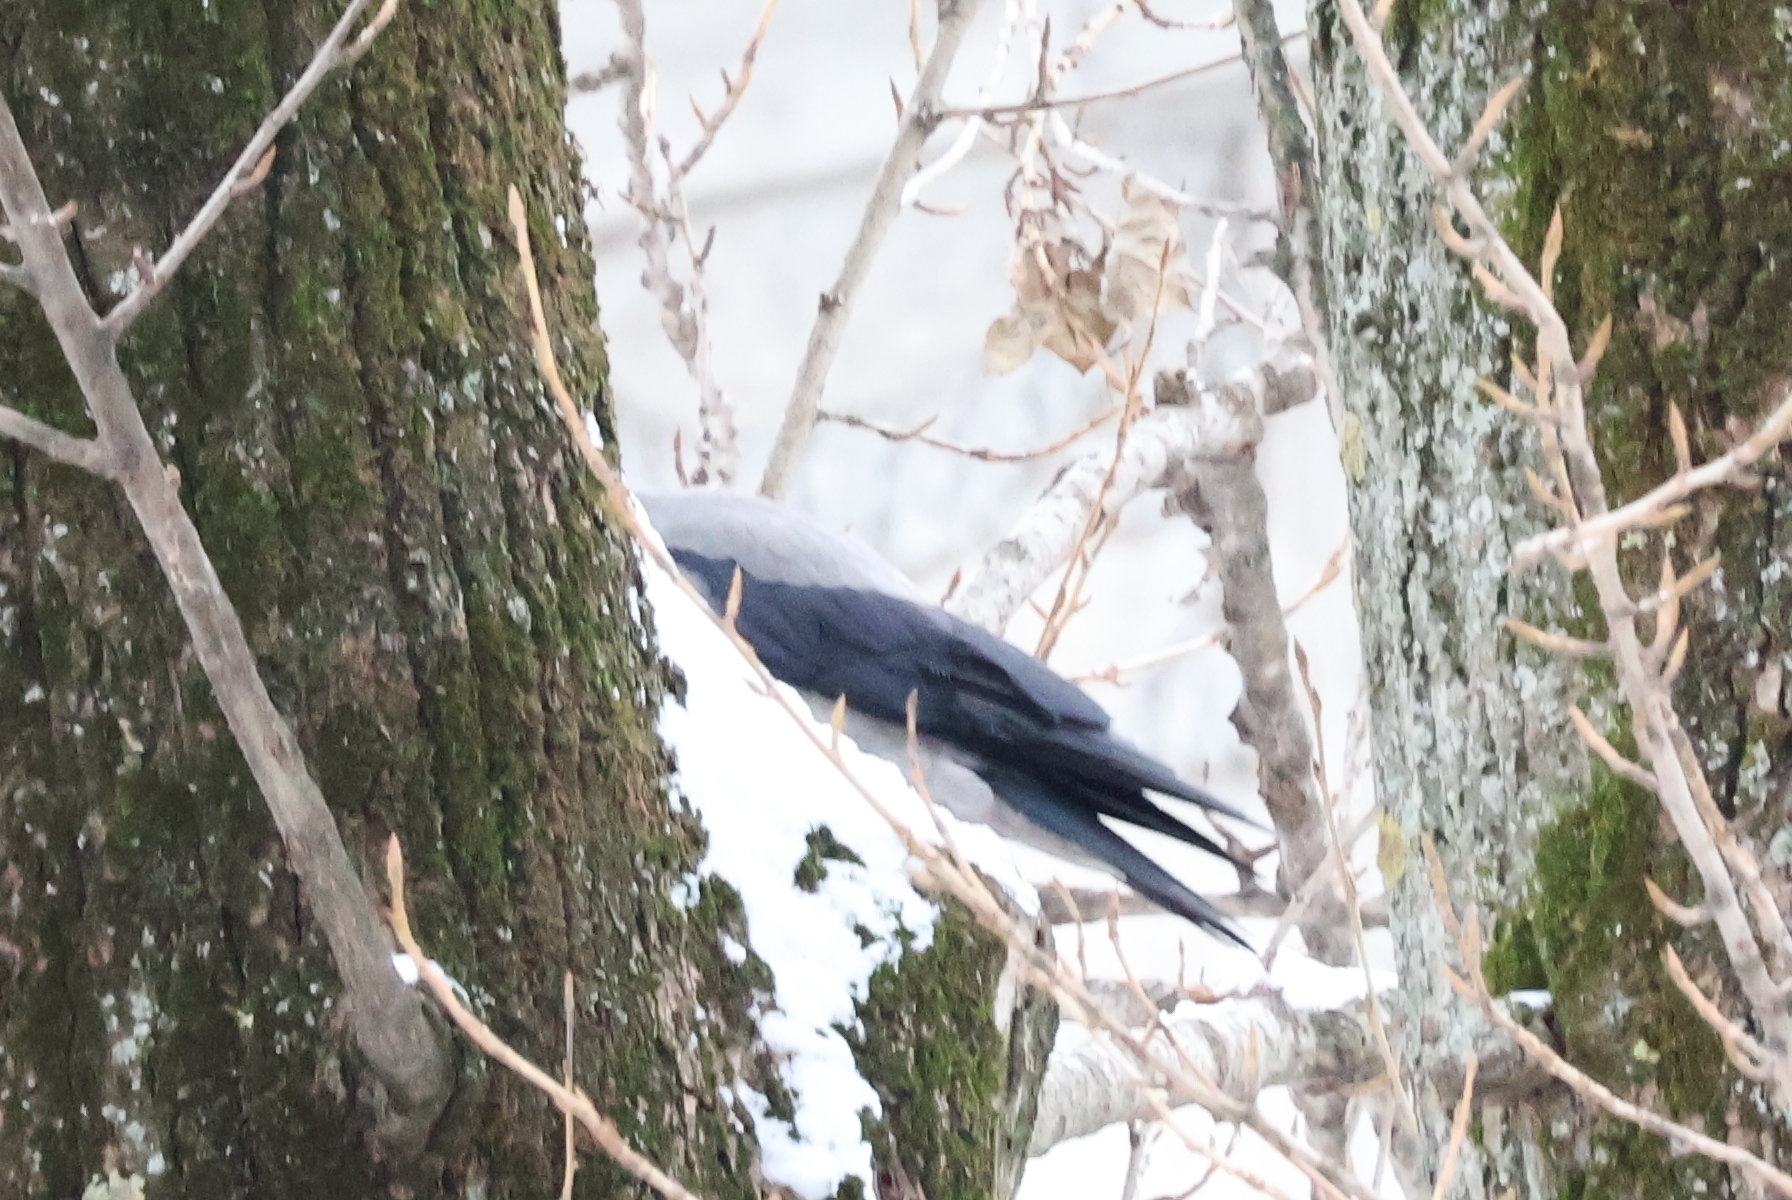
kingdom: Animalia
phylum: Chordata
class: Aves
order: Passeriformes
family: Corvidae
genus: Corvus
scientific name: Corvus cornix
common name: Hooded crow
